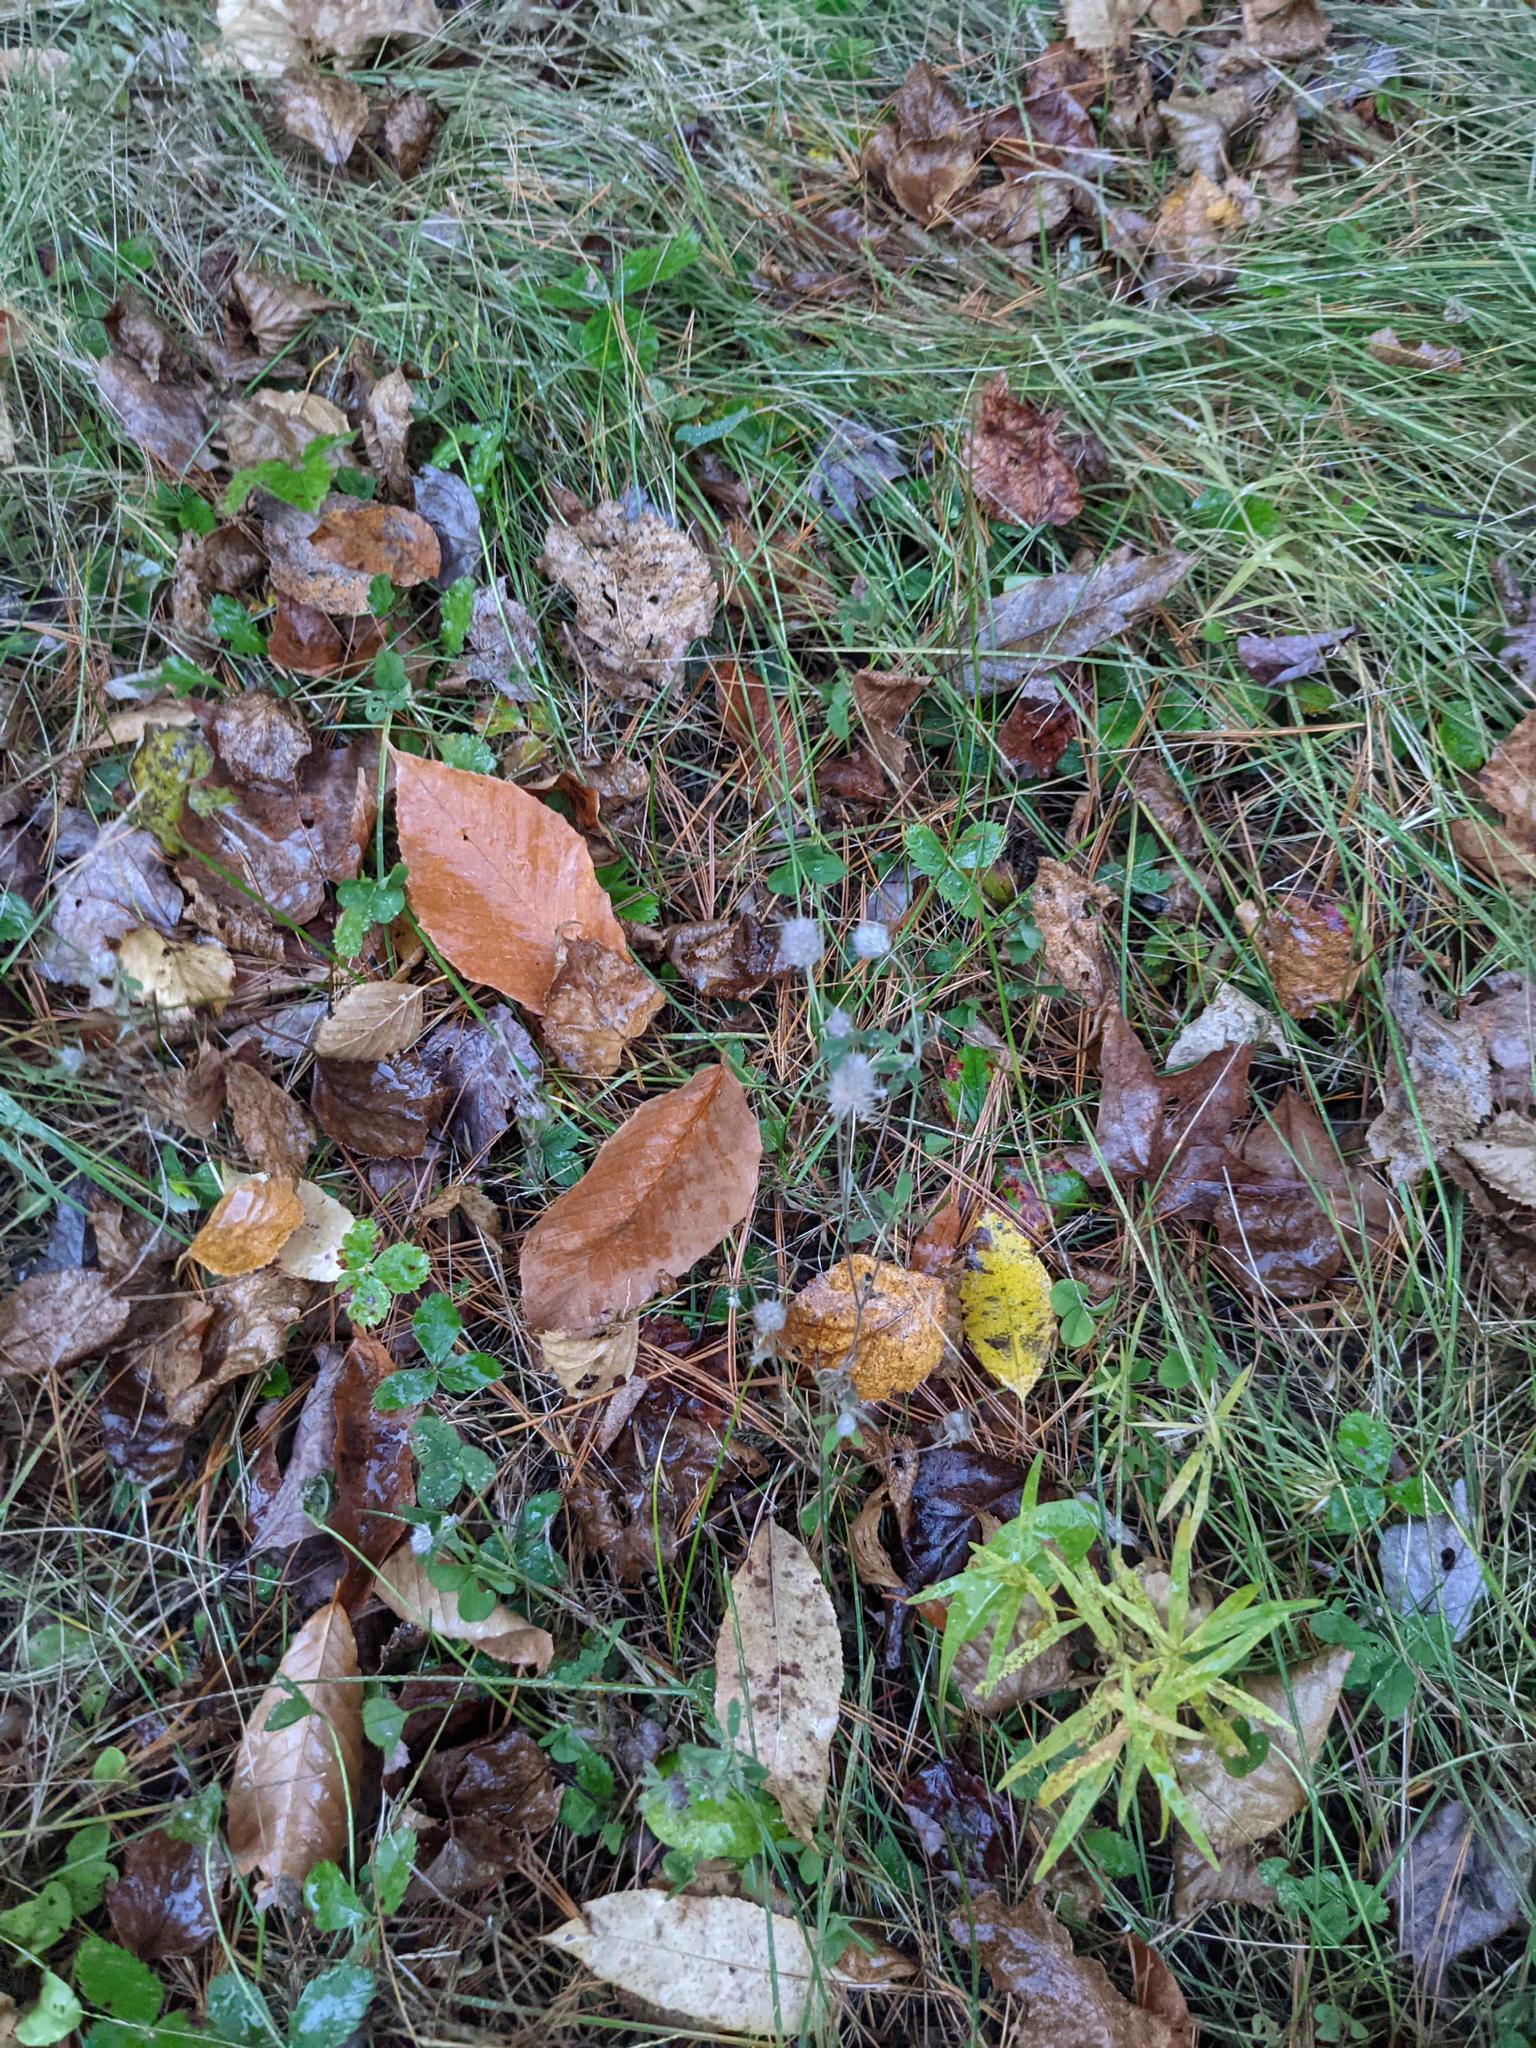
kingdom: Plantae
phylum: Tracheophyta
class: Magnoliopsida
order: Fabales
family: Fabaceae
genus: Trifolium
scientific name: Trifolium arvense
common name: Hare's-foot clover
